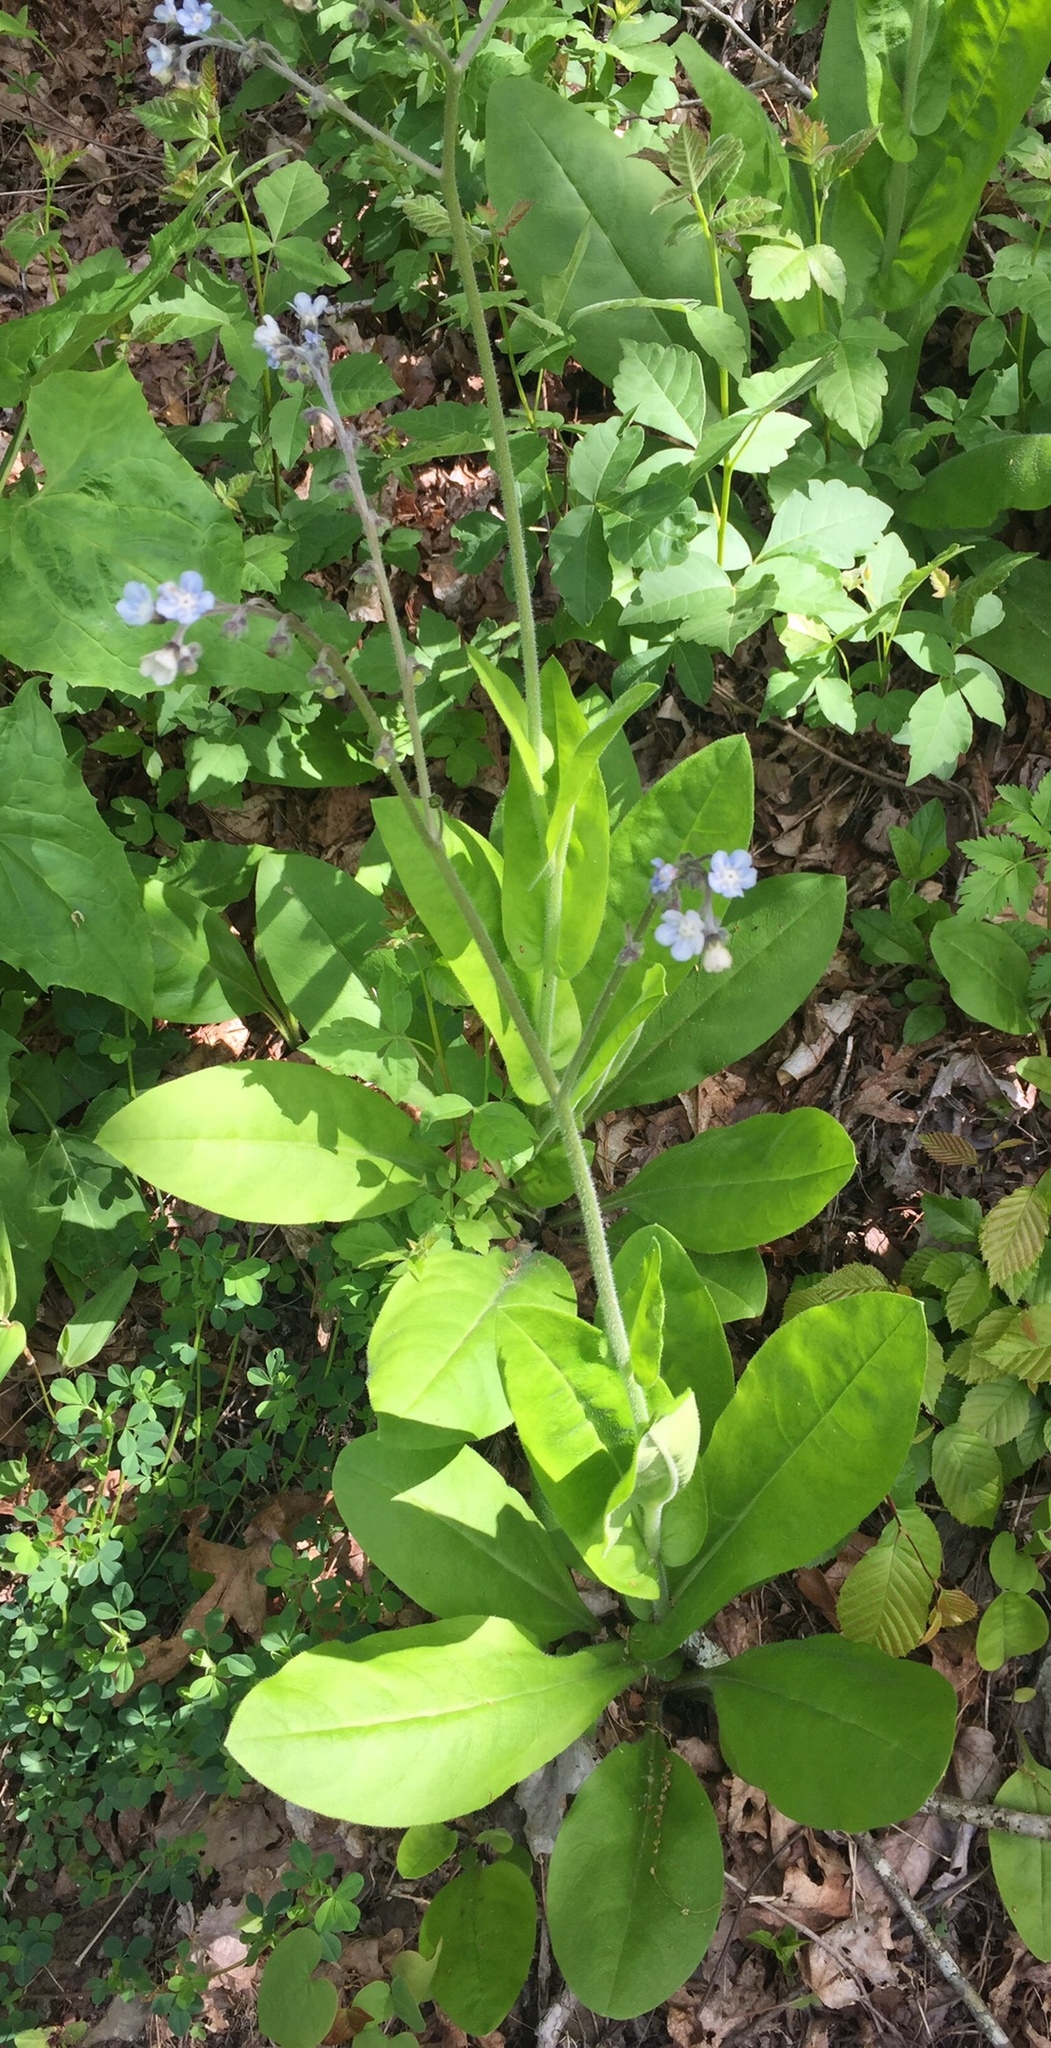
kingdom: Plantae
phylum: Tracheophyta
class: Magnoliopsida
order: Boraginales
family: Boraginaceae
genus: Andersonglossum
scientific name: Andersonglossum virginianum
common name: Wild comfrey
